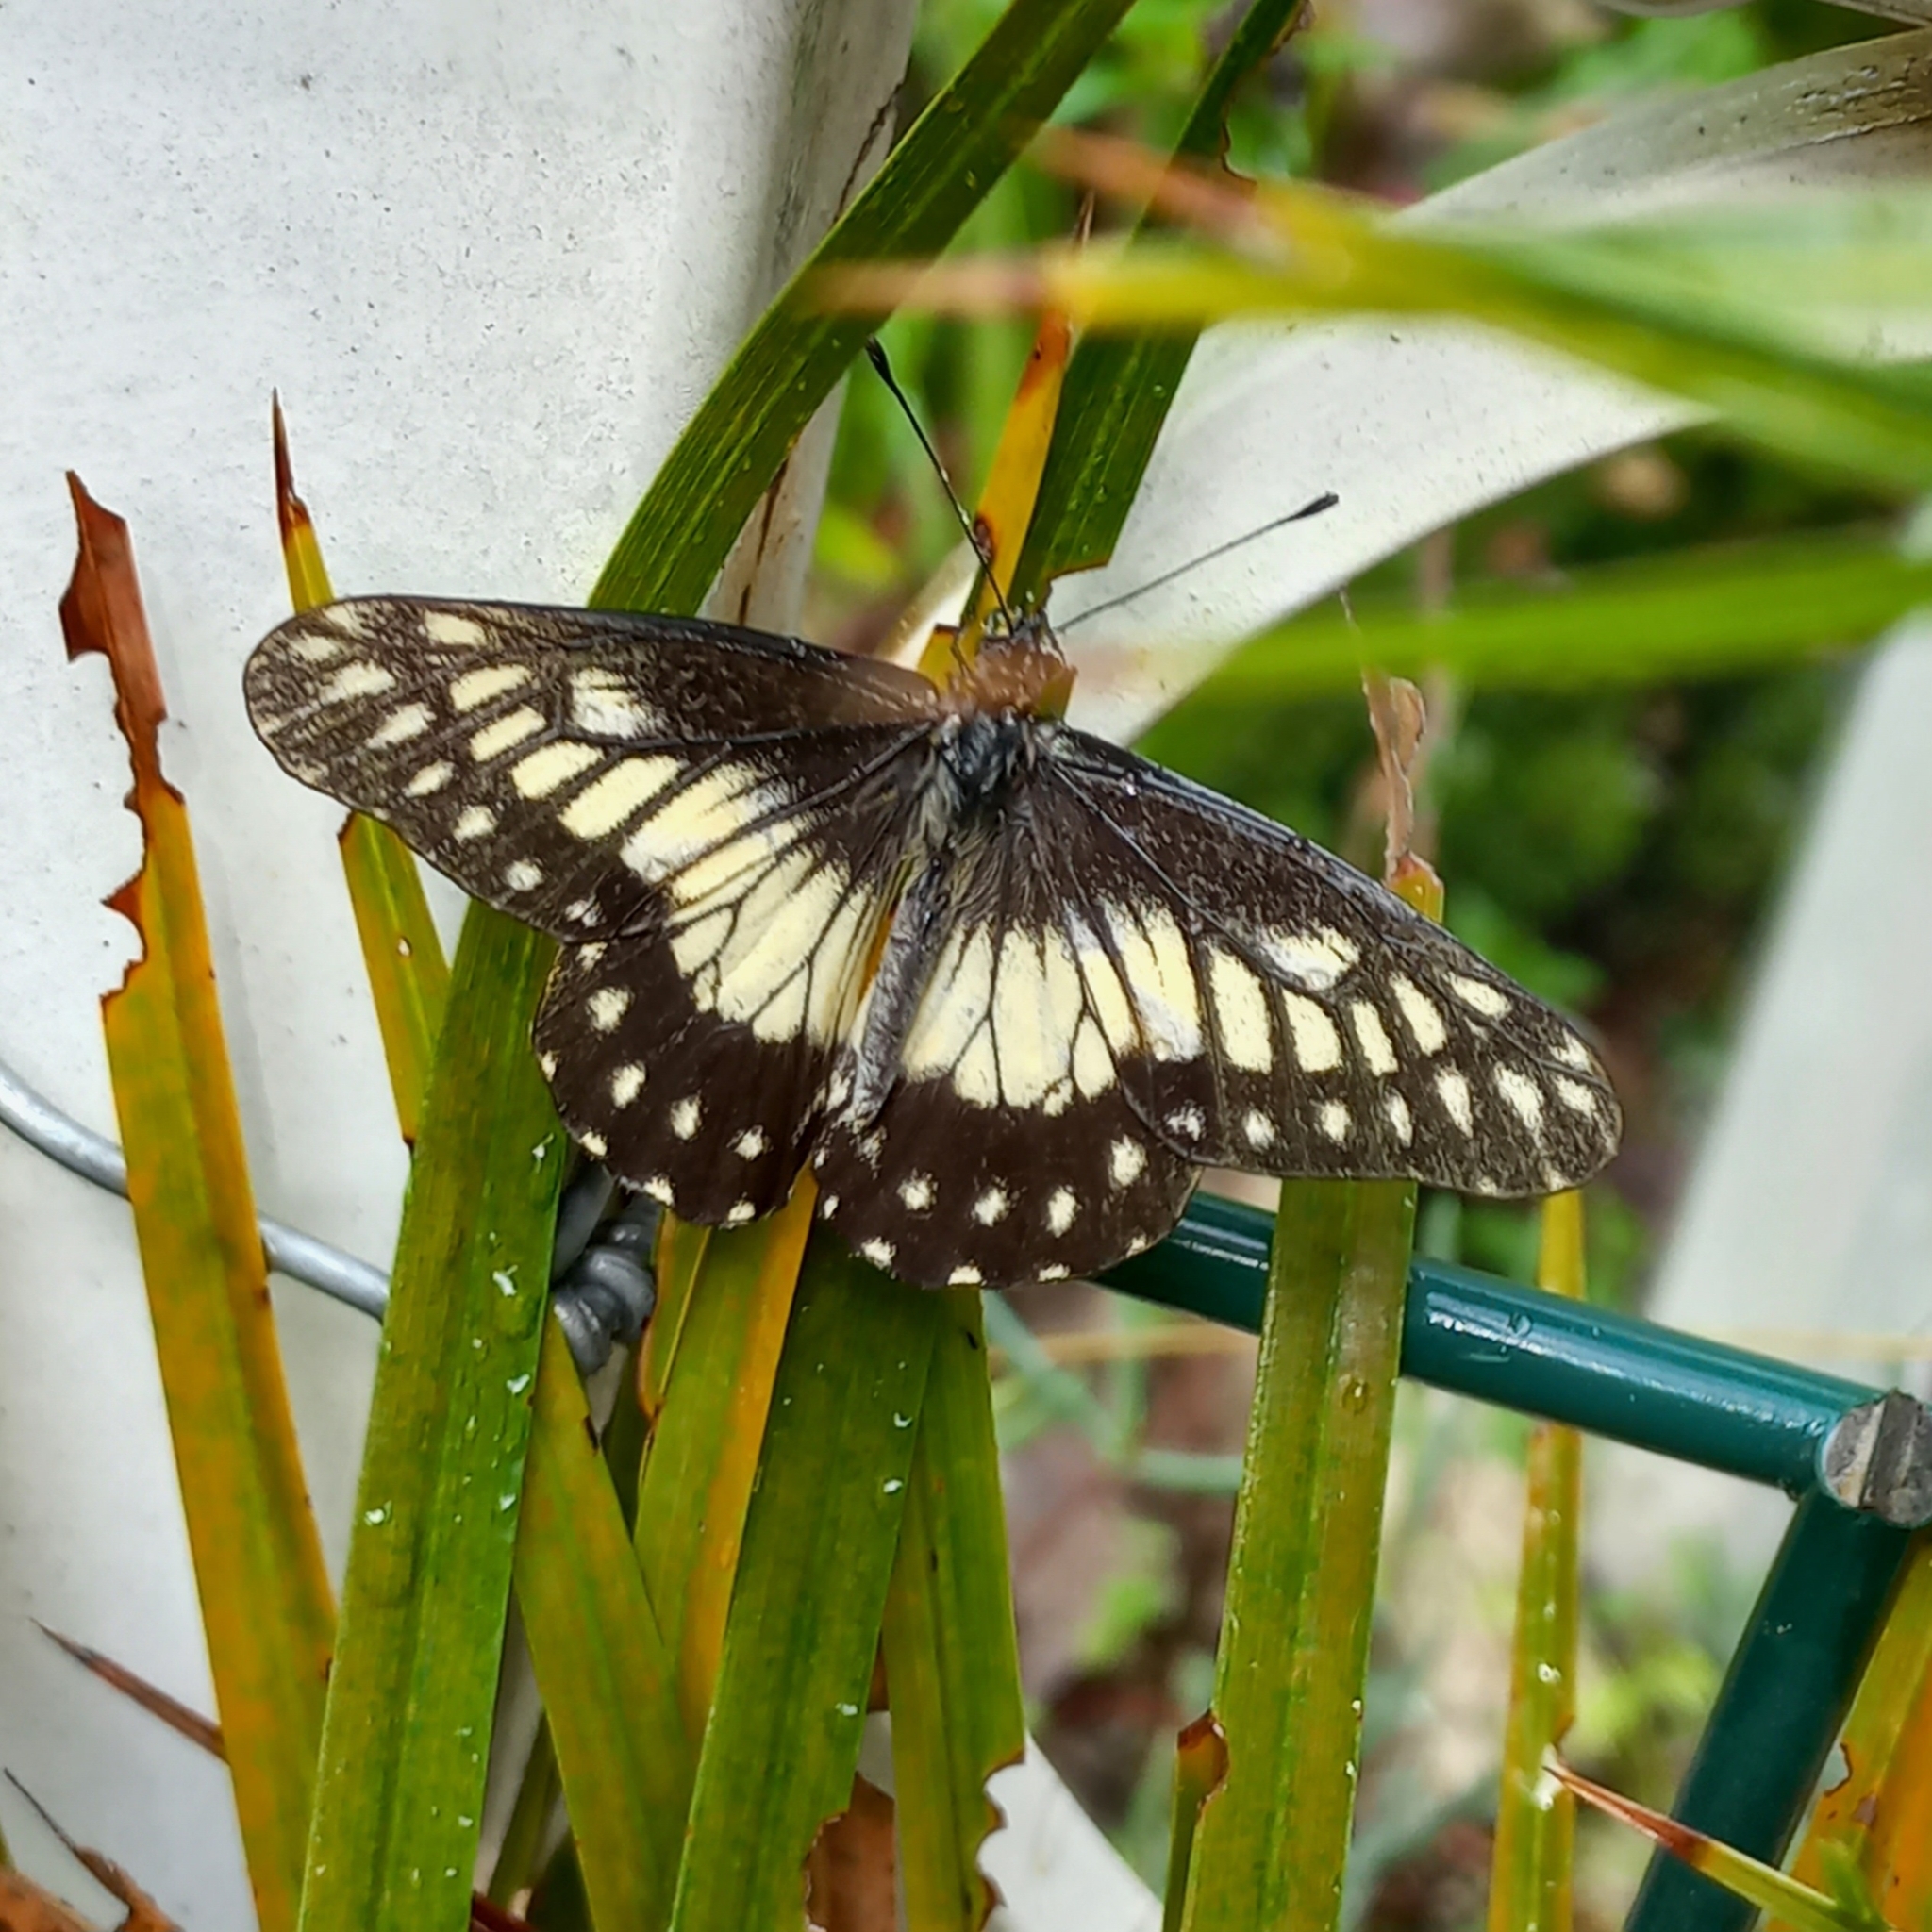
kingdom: Animalia
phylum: Arthropoda
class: Insecta
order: Lepidoptera
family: Pieridae
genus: Archonias
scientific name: Archonias nimbice
